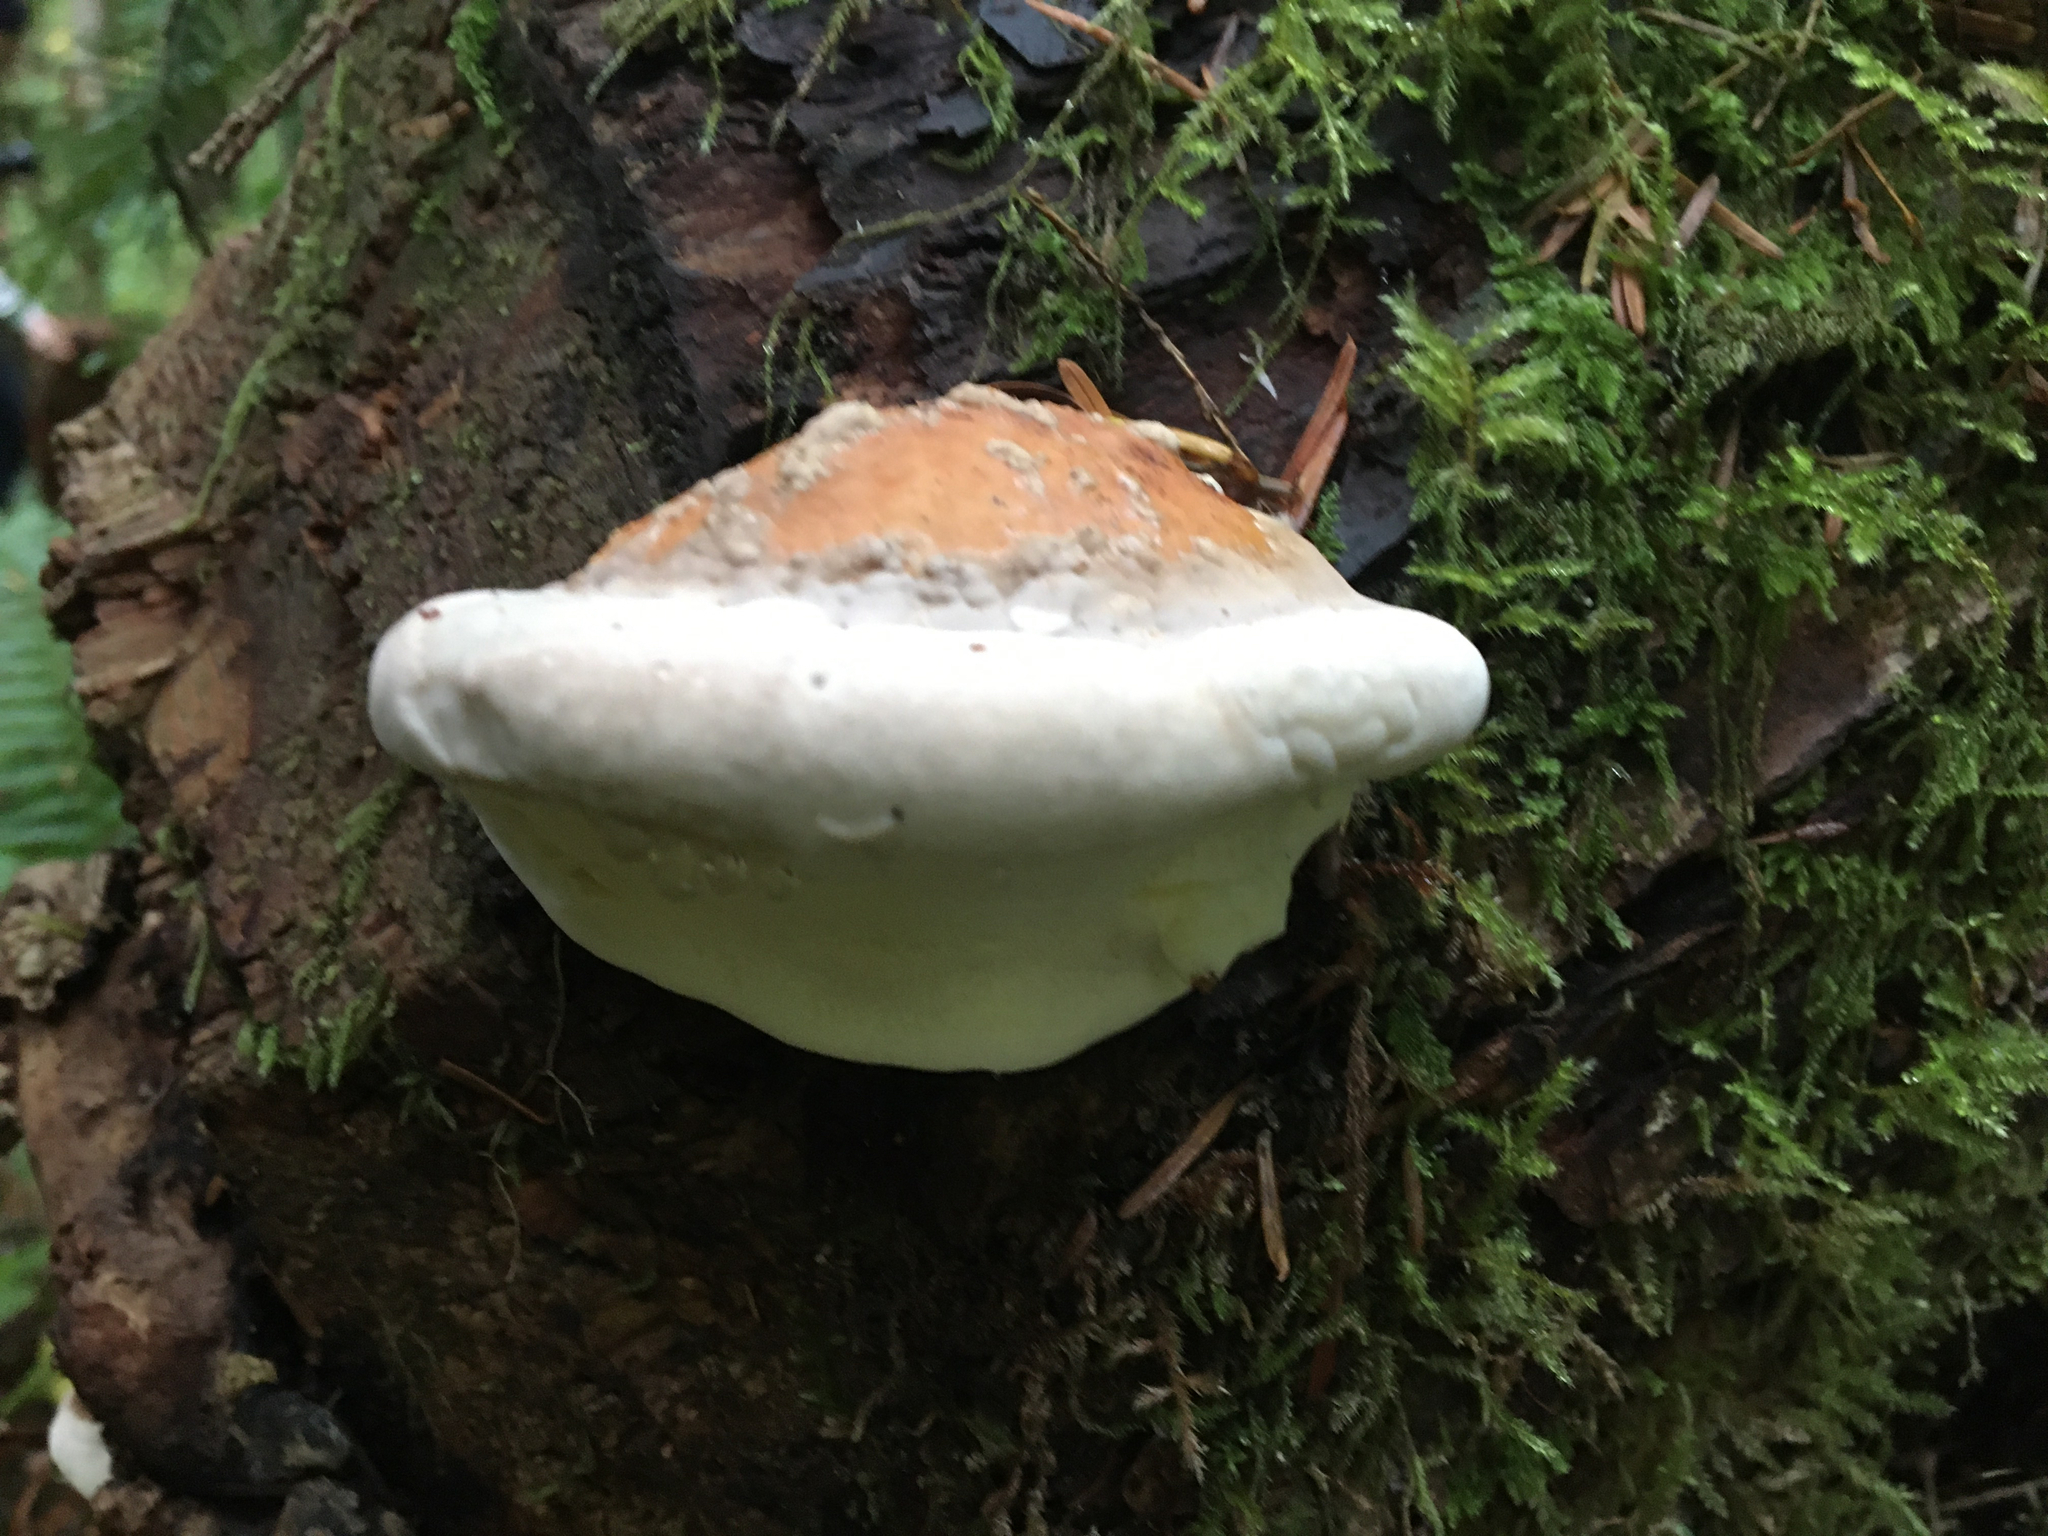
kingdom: Fungi
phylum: Basidiomycota
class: Agaricomycetes
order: Polyporales
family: Fomitopsidaceae
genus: Fomitopsis
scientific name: Fomitopsis mounceae
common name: Northern red belt
